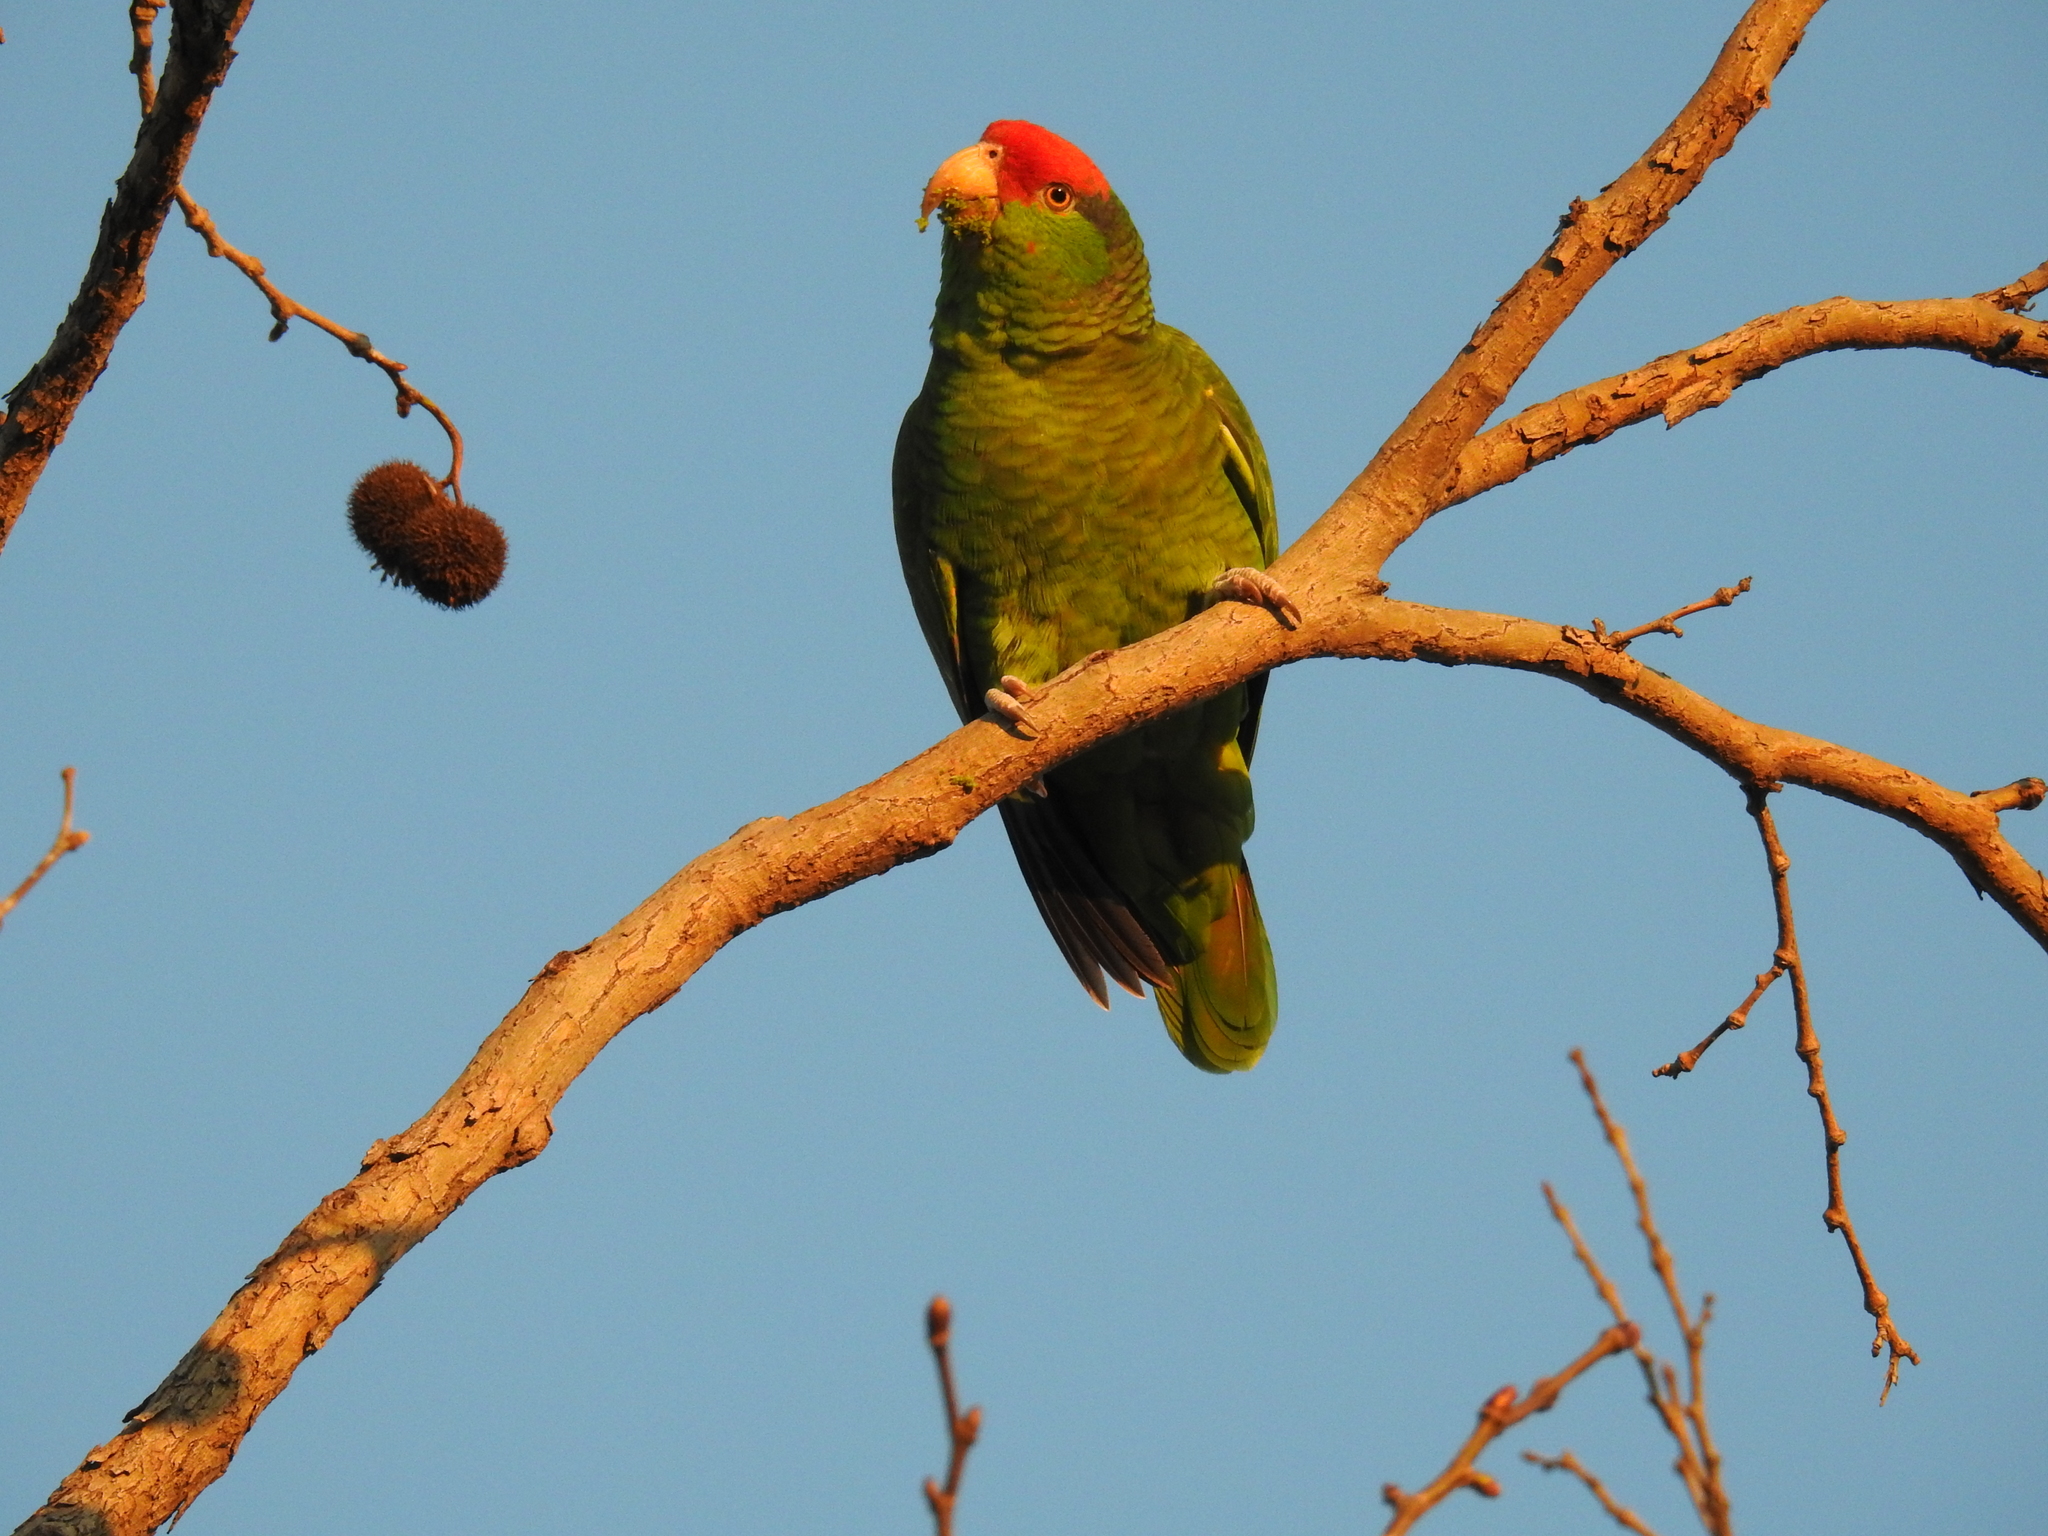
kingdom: Animalia
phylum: Chordata
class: Aves
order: Psittaciformes
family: Psittacidae
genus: Amazona
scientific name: Amazona viridigenalis
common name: Red-crowned amazon
